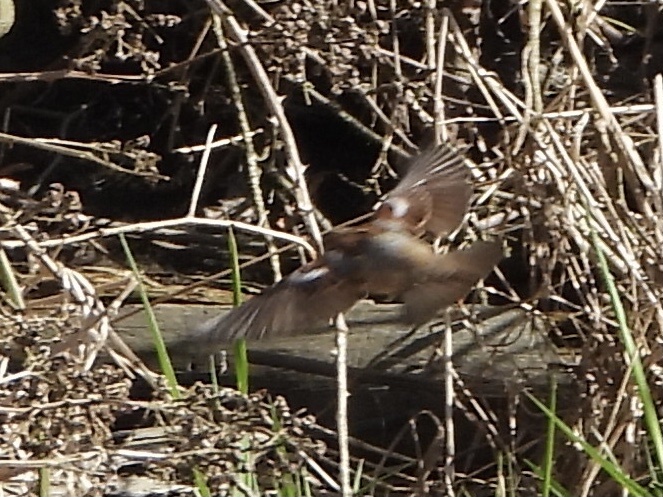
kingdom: Animalia
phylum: Chordata
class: Aves
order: Passeriformes
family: Passeridae
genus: Passer
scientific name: Passer domesticus
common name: House sparrow
